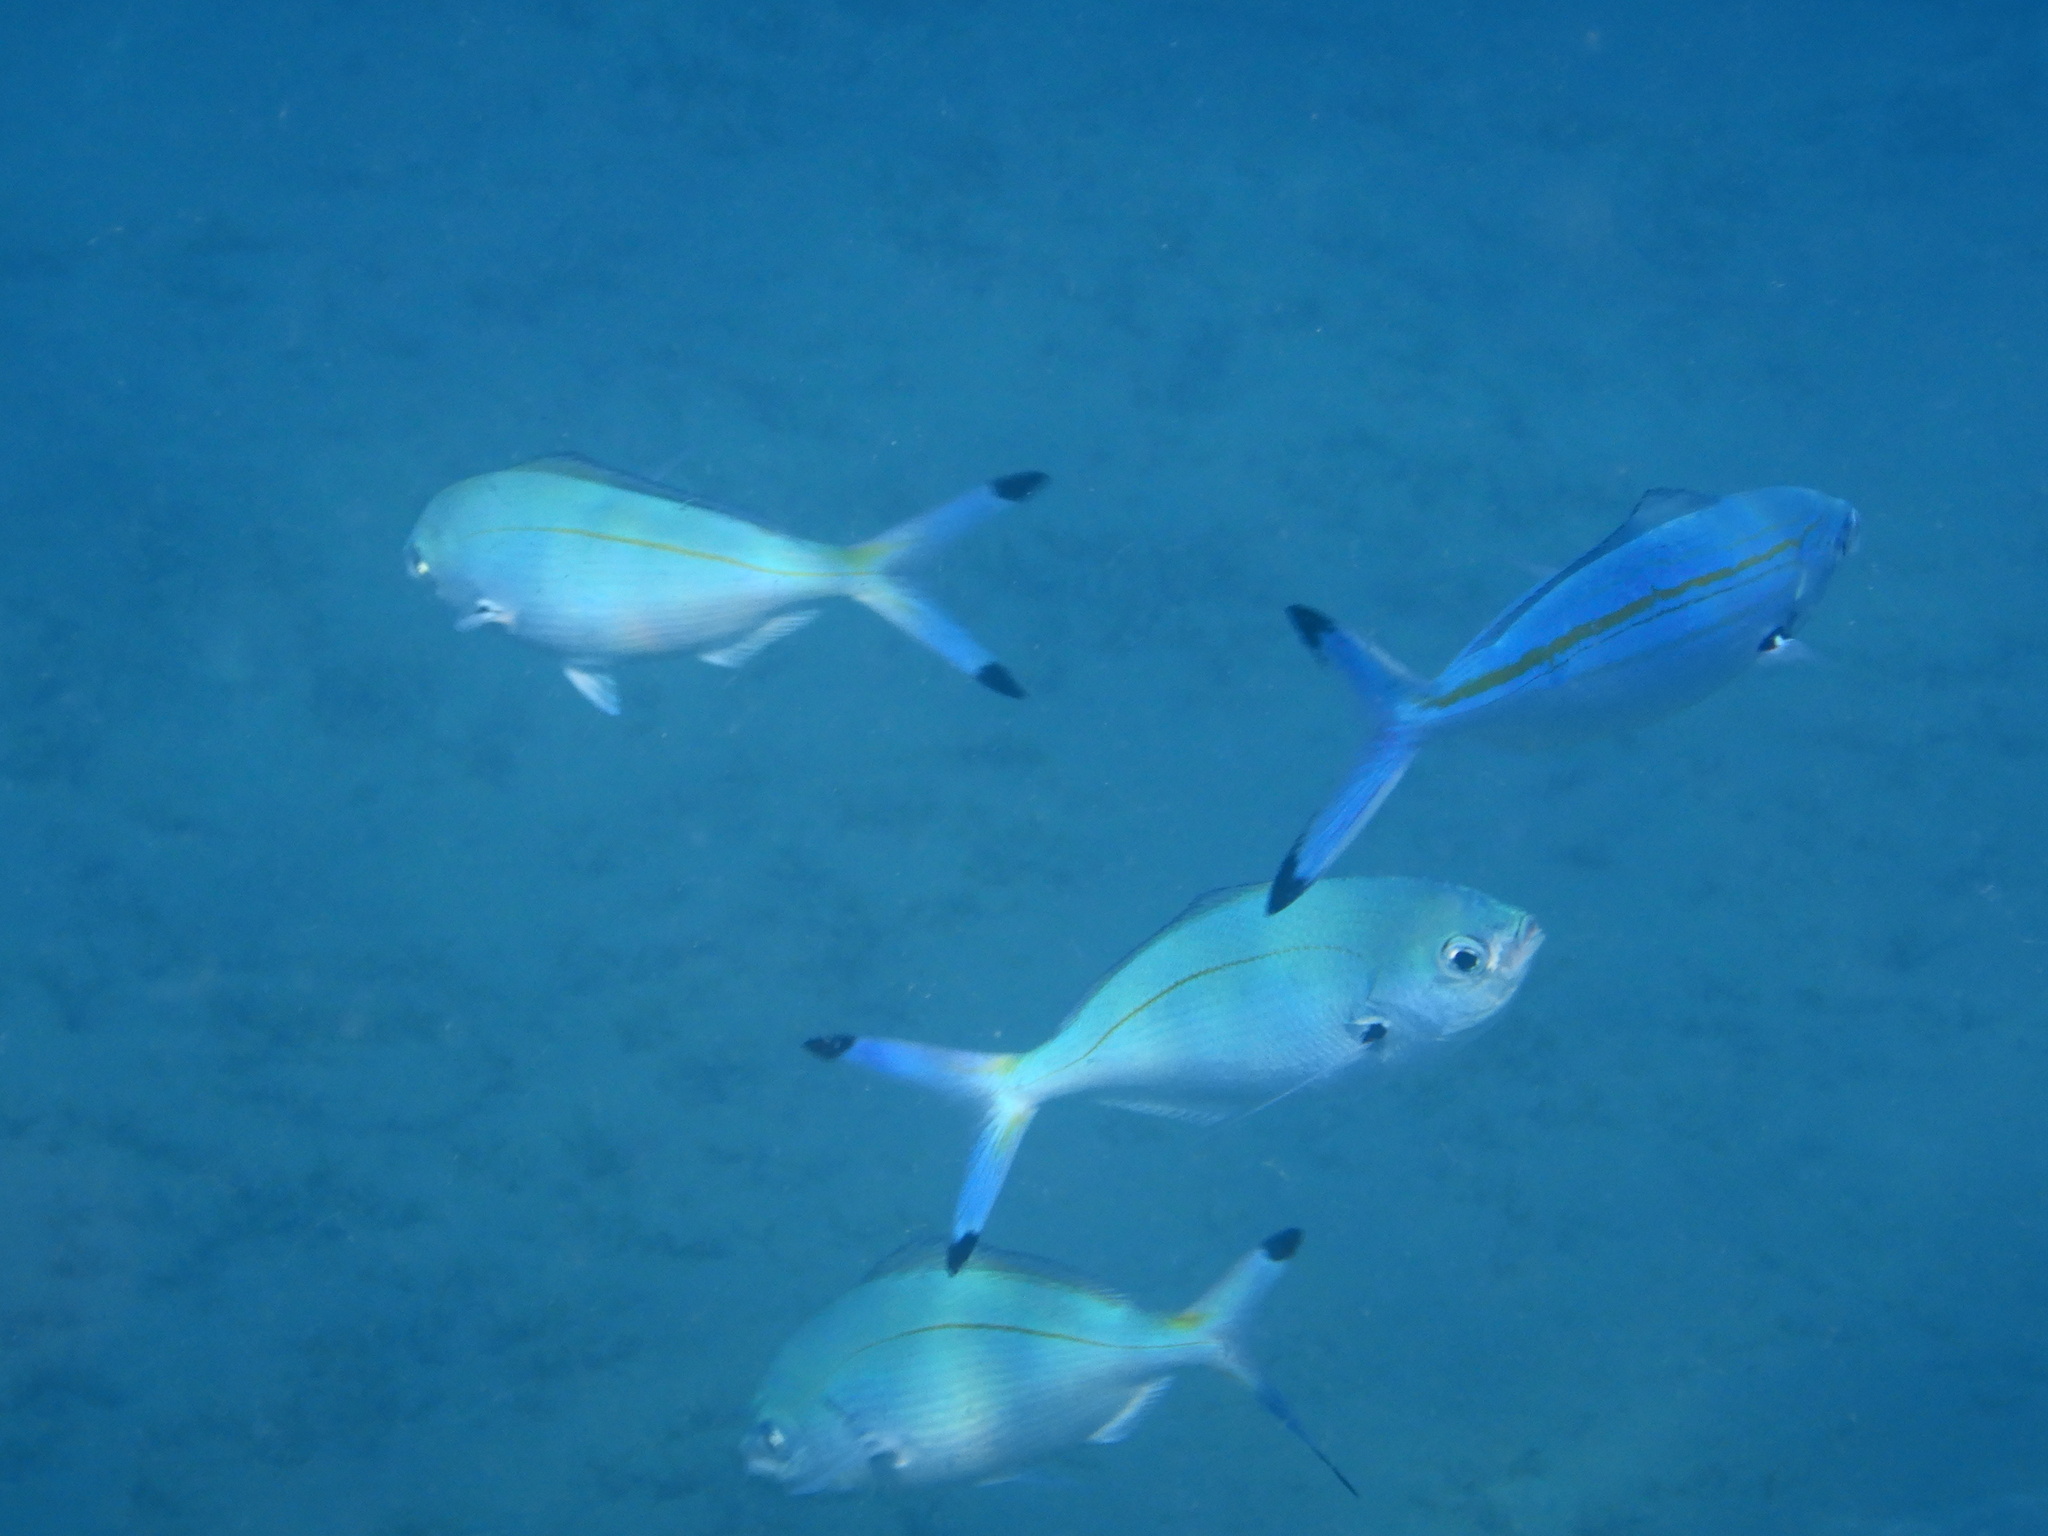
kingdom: Animalia
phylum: Chordata
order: Perciformes
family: Caesionidae
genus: Caesio
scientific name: Caesio lunaris
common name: Blue fusilier
